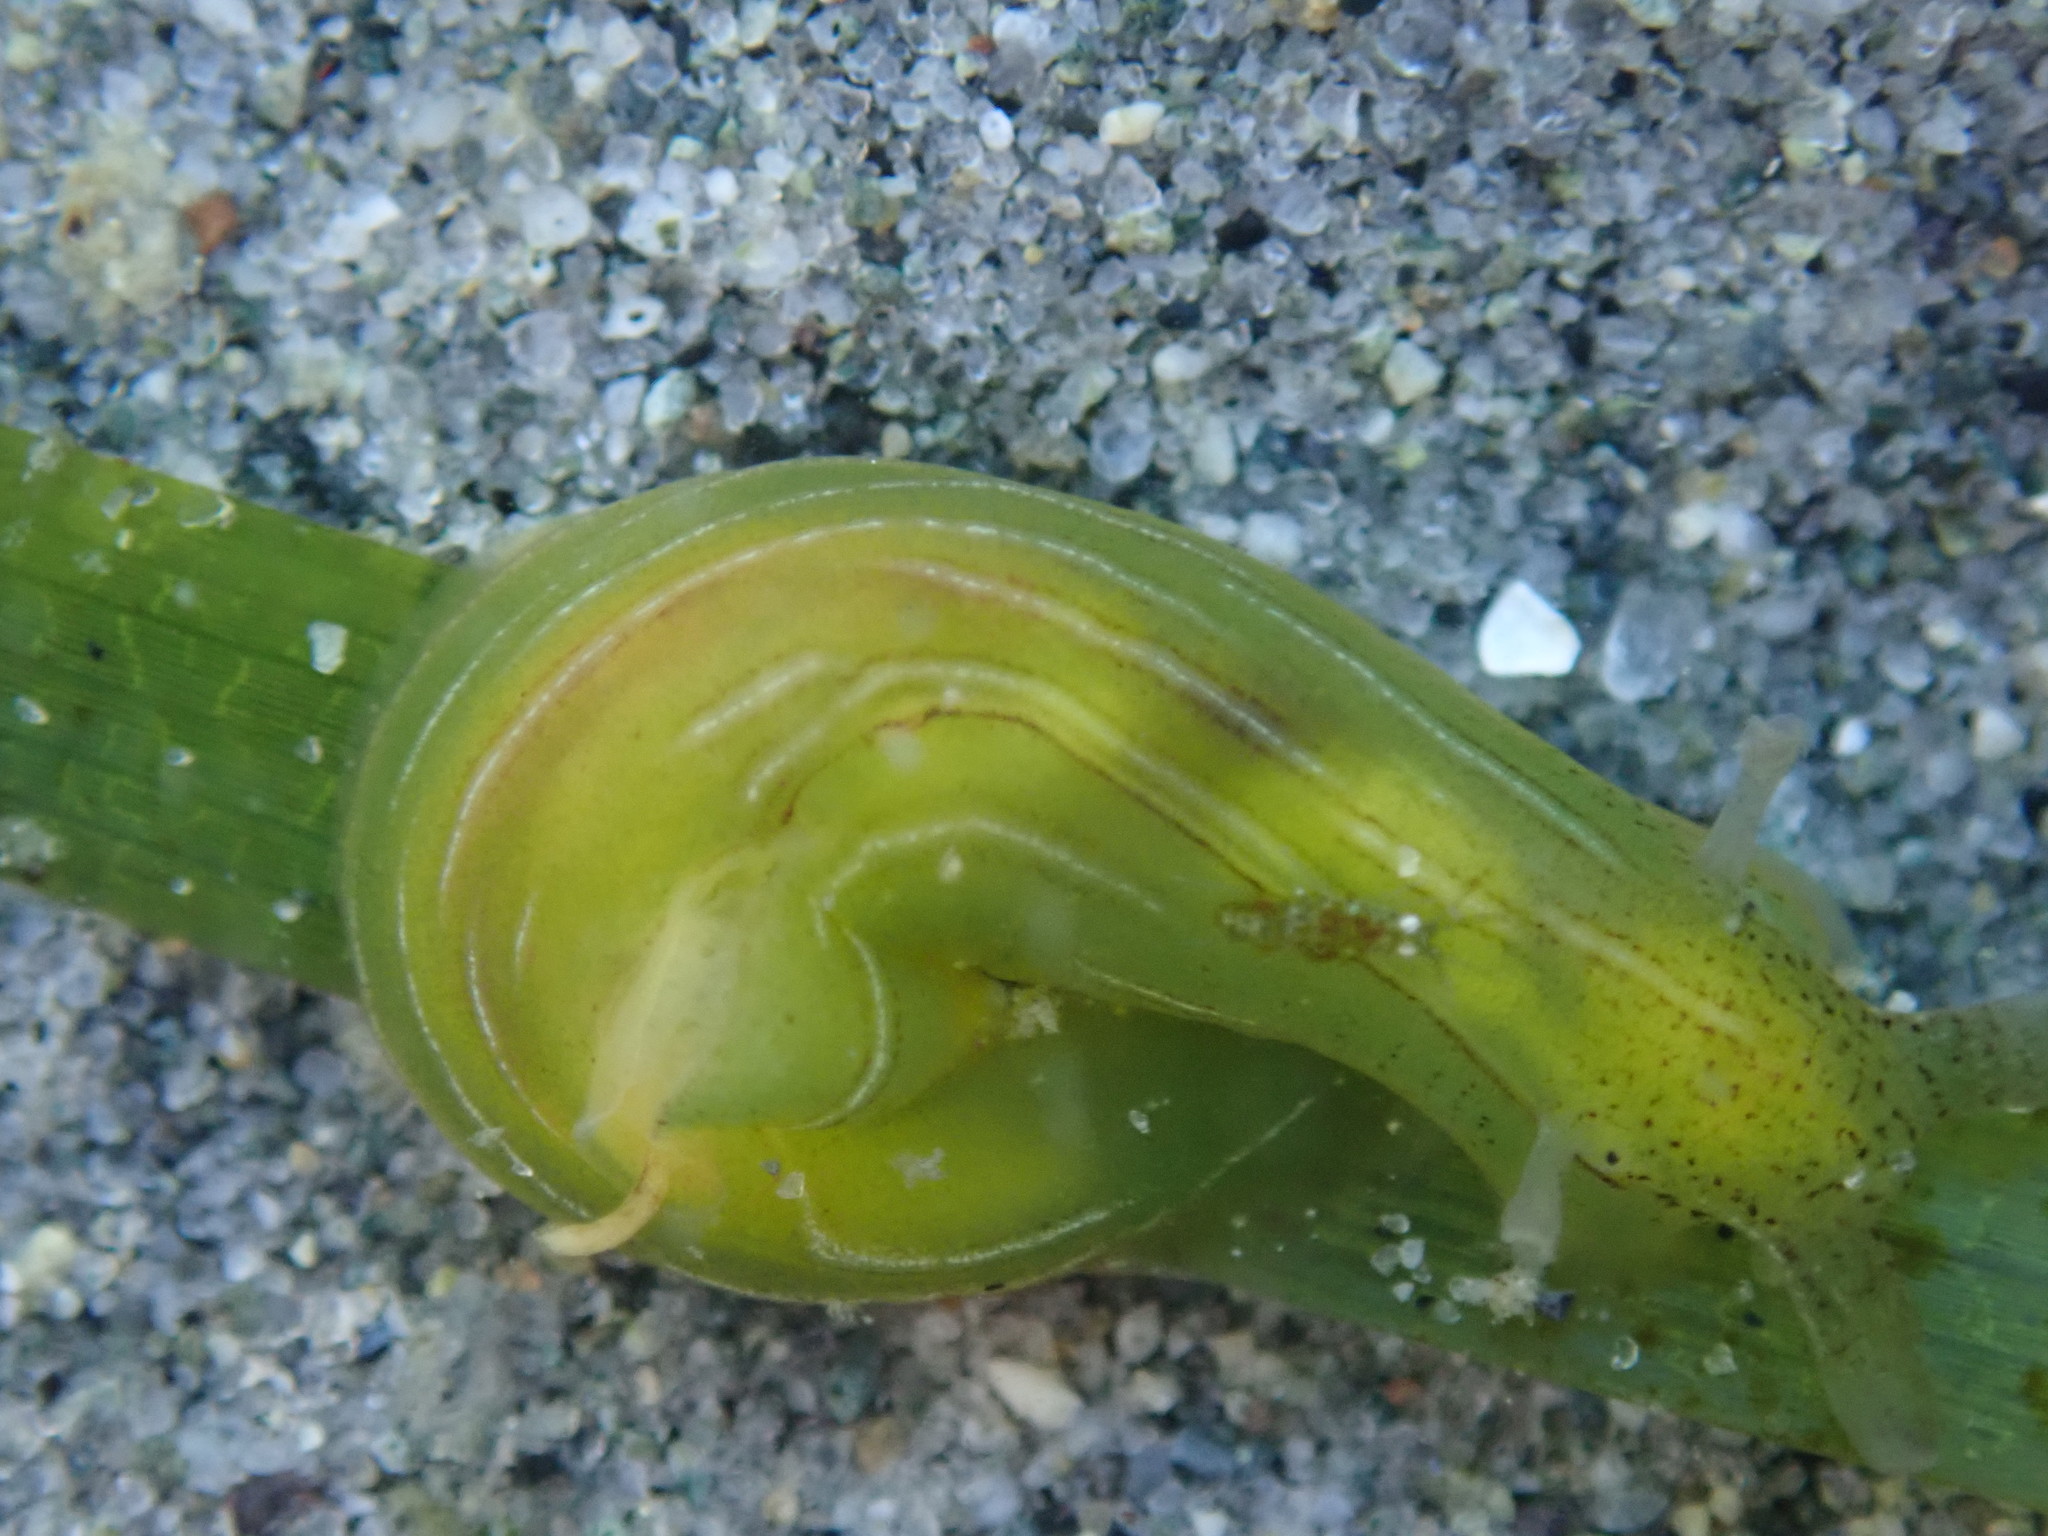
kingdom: Animalia
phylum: Mollusca
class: Gastropoda
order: Aplysiida
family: Aplysiidae
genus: Phyllaplysia
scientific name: Phyllaplysia taylori
